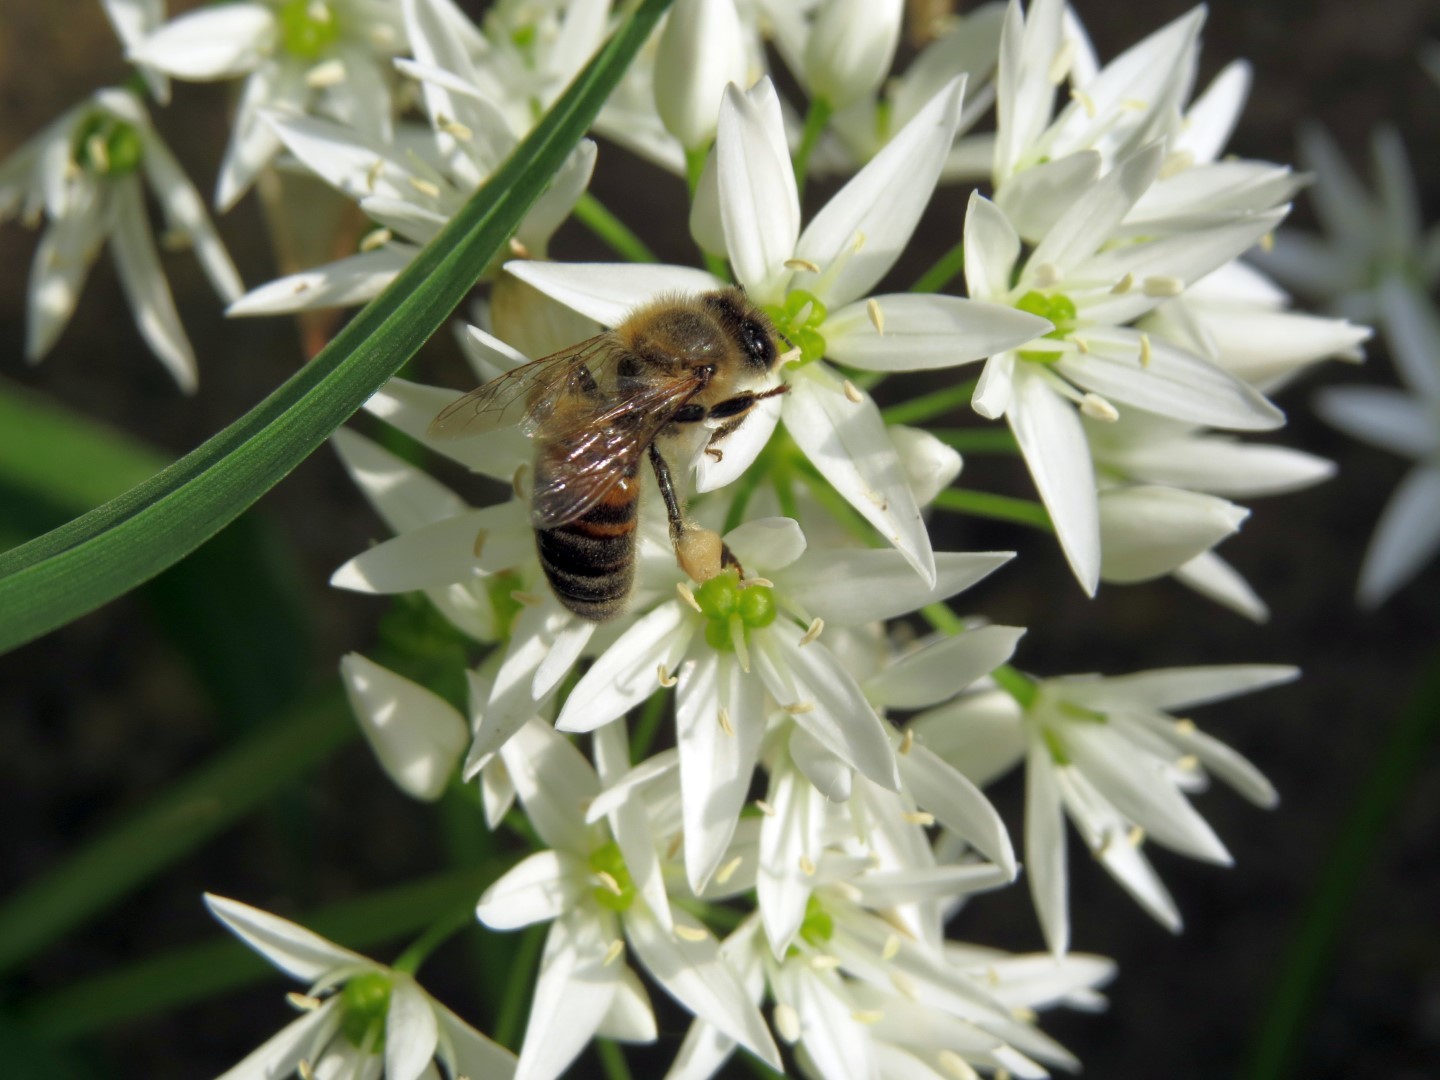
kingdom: Animalia
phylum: Arthropoda
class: Insecta
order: Hymenoptera
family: Apidae
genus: Apis
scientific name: Apis mellifera
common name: Honey bee
